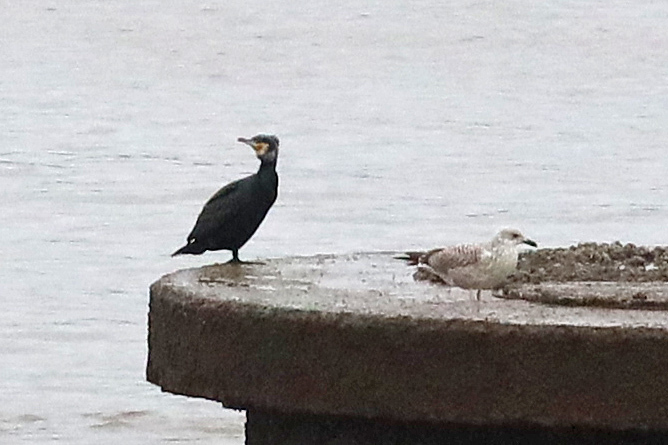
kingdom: Animalia
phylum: Chordata
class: Aves
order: Suliformes
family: Phalacrocoracidae
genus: Phalacrocorax
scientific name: Phalacrocorax carbo
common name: Great cormorant
